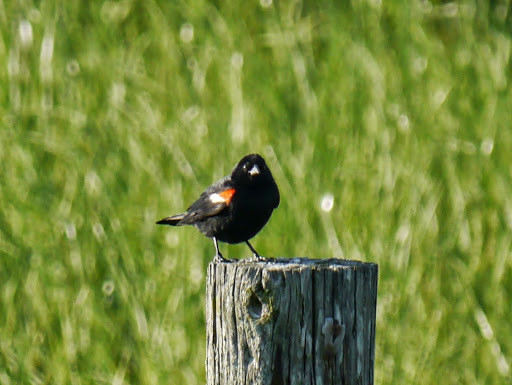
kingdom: Animalia
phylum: Chordata
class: Aves
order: Passeriformes
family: Icteridae
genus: Agelaius
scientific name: Agelaius phoeniceus
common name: Red-winged blackbird
